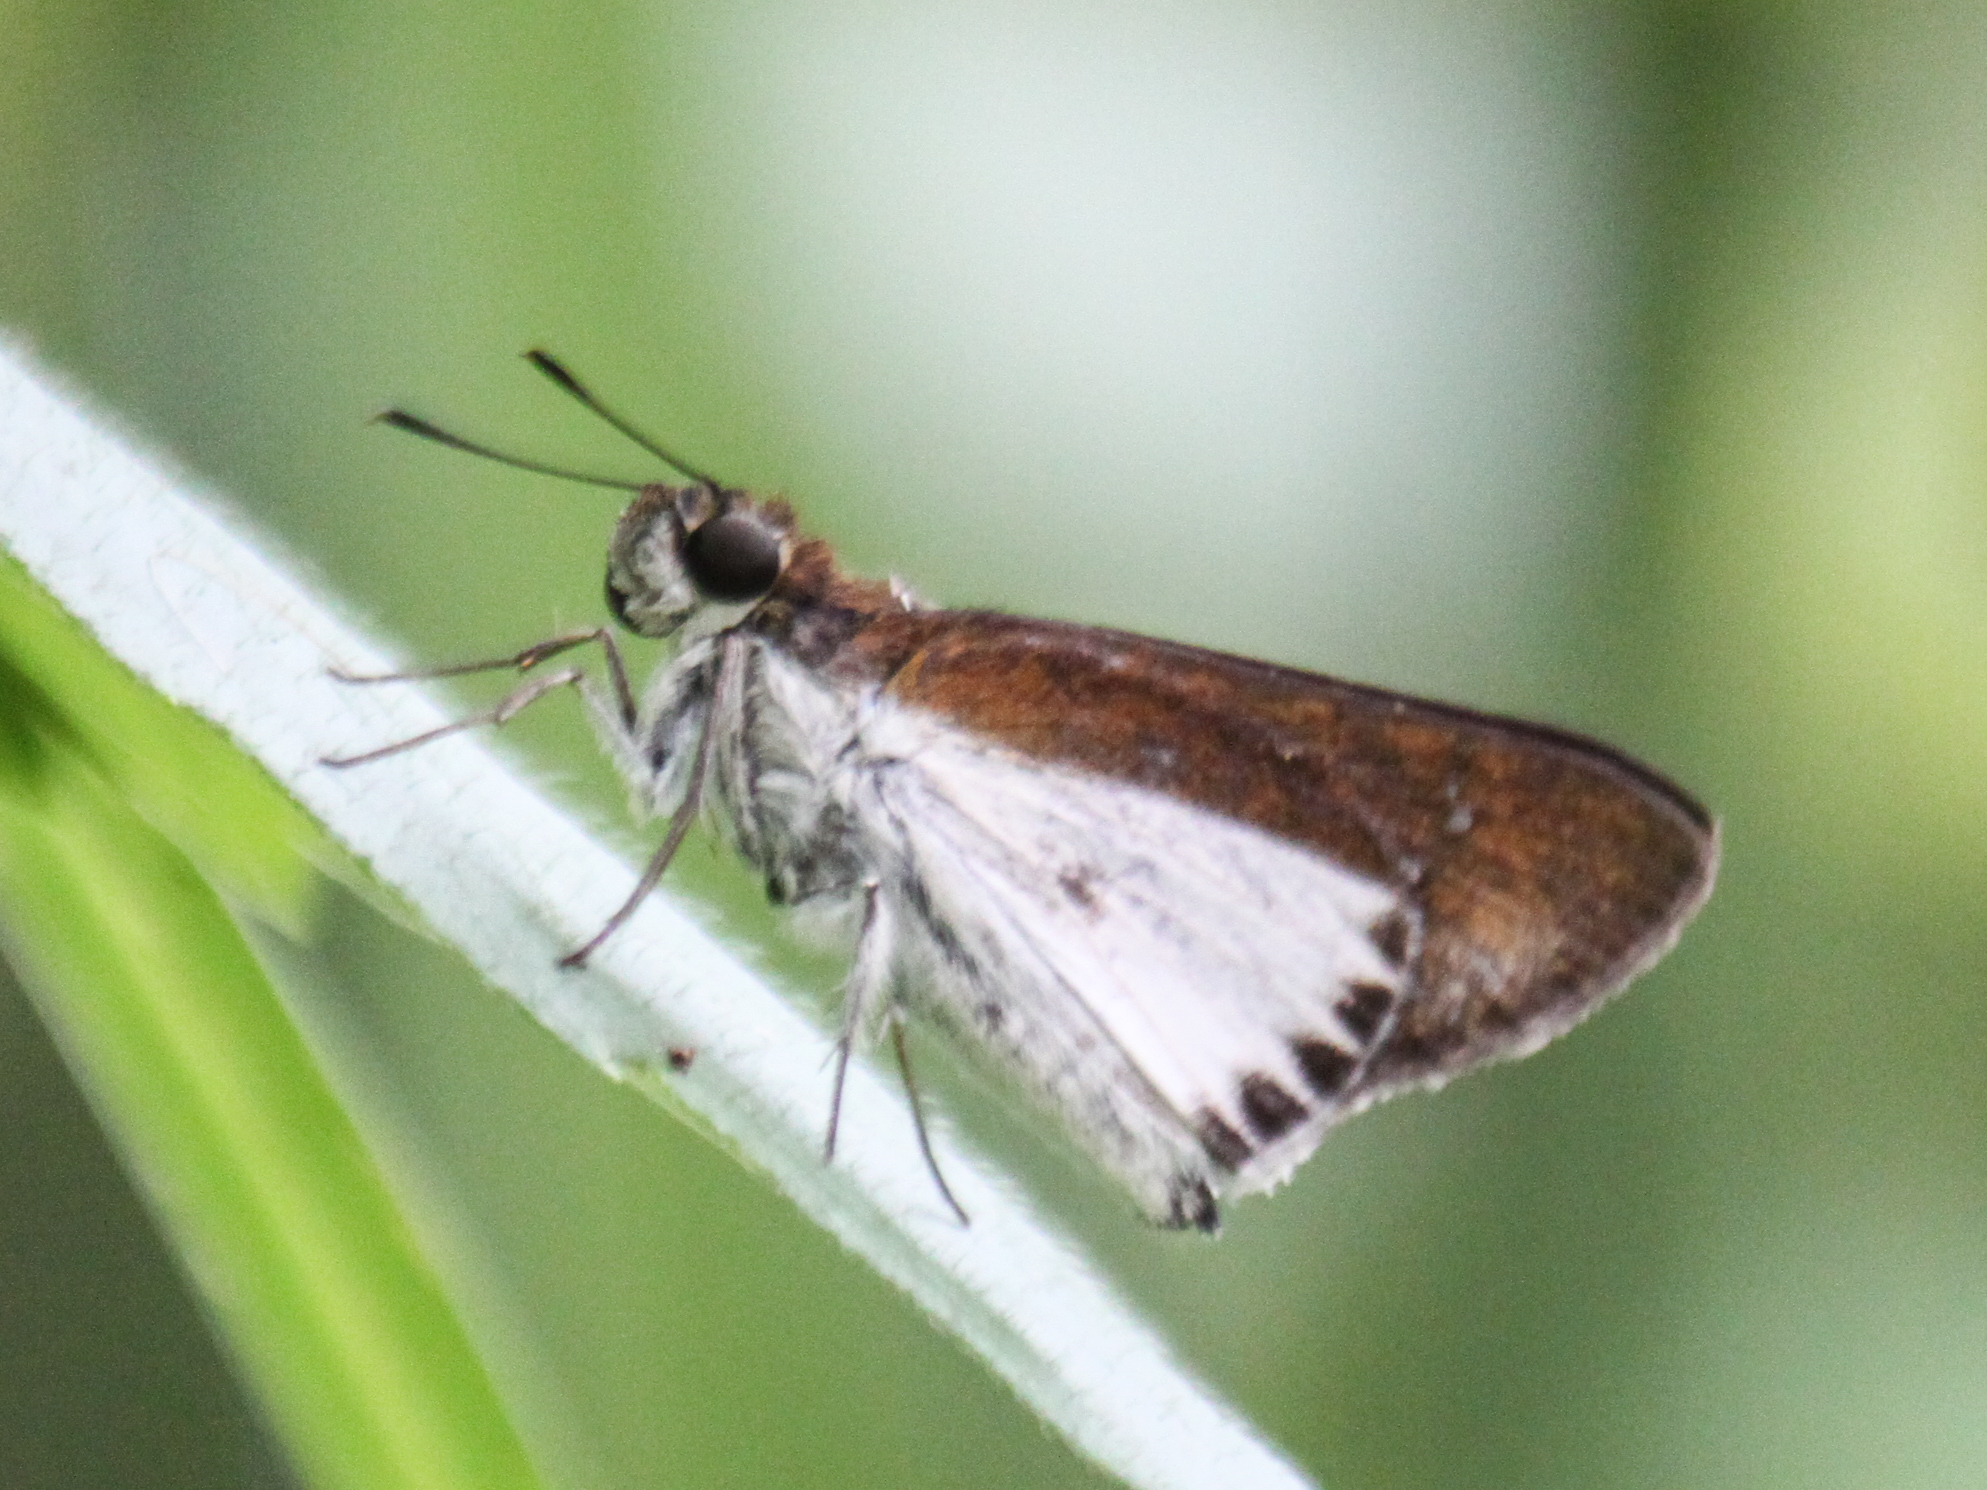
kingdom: Animalia
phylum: Arthropoda
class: Insecta
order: Lepidoptera
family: Hesperiidae
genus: Iton
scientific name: Iton semamora
